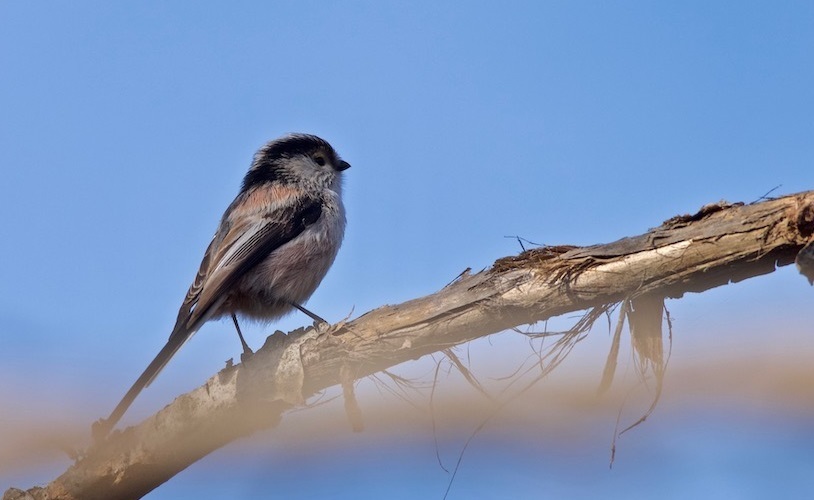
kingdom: Animalia
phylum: Chordata
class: Aves
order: Passeriformes
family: Aegithalidae
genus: Aegithalos
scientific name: Aegithalos caudatus
